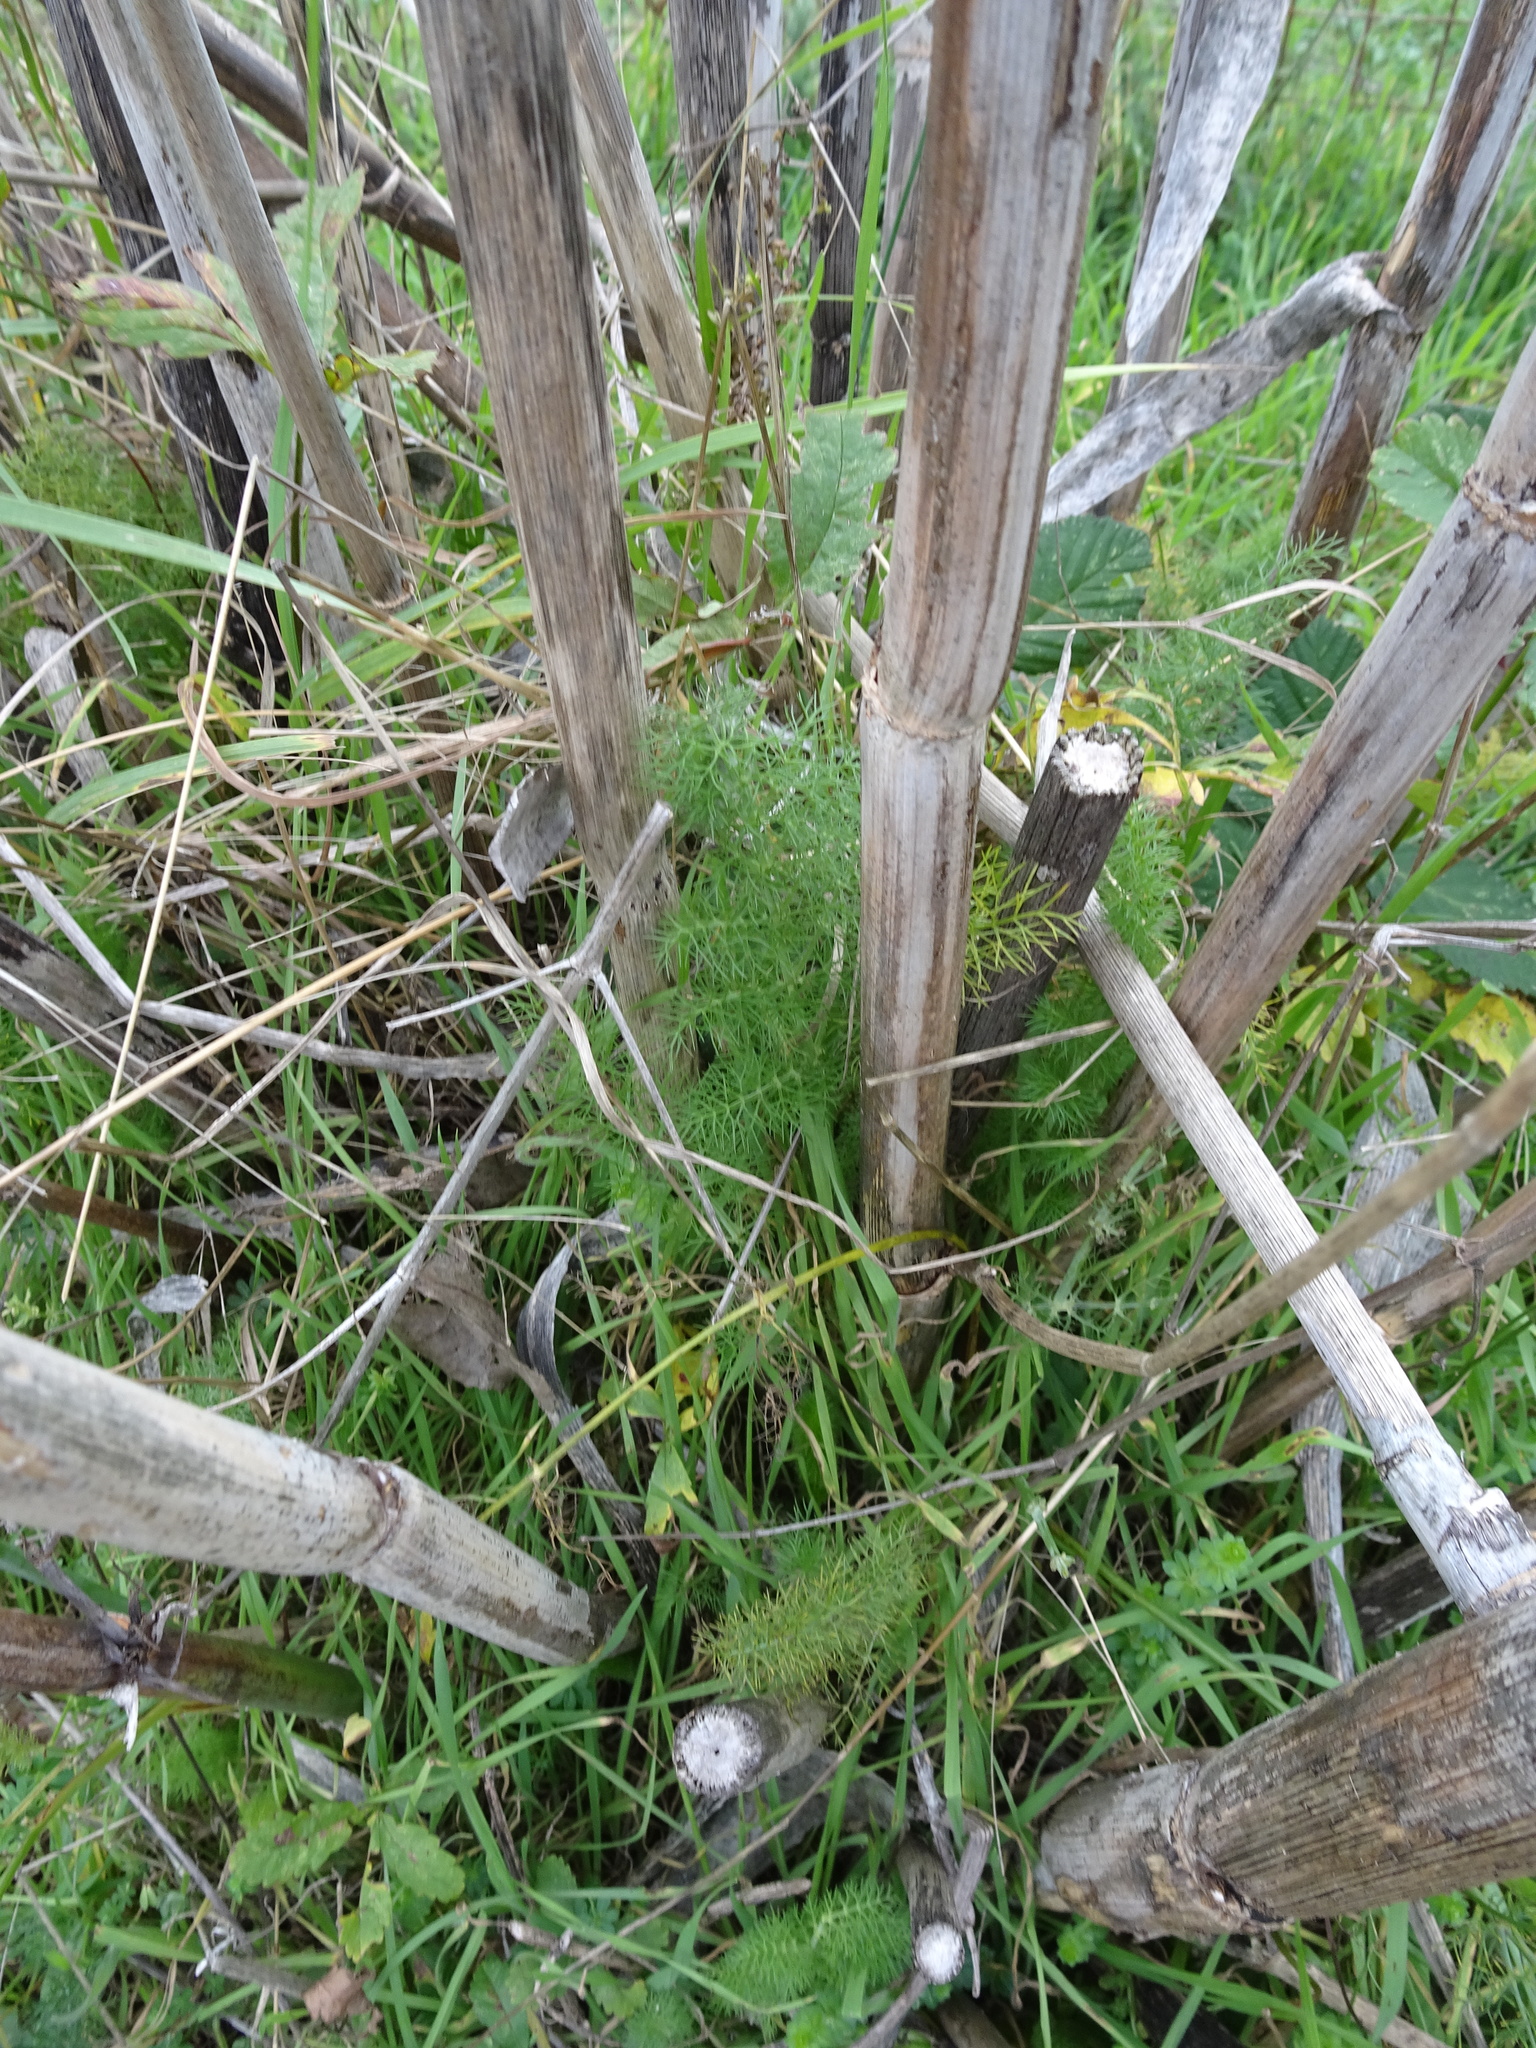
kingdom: Plantae
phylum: Tracheophyta
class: Magnoliopsida
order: Apiales
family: Apiaceae
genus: Foeniculum
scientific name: Foeniculum vulgare
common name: Fennel
